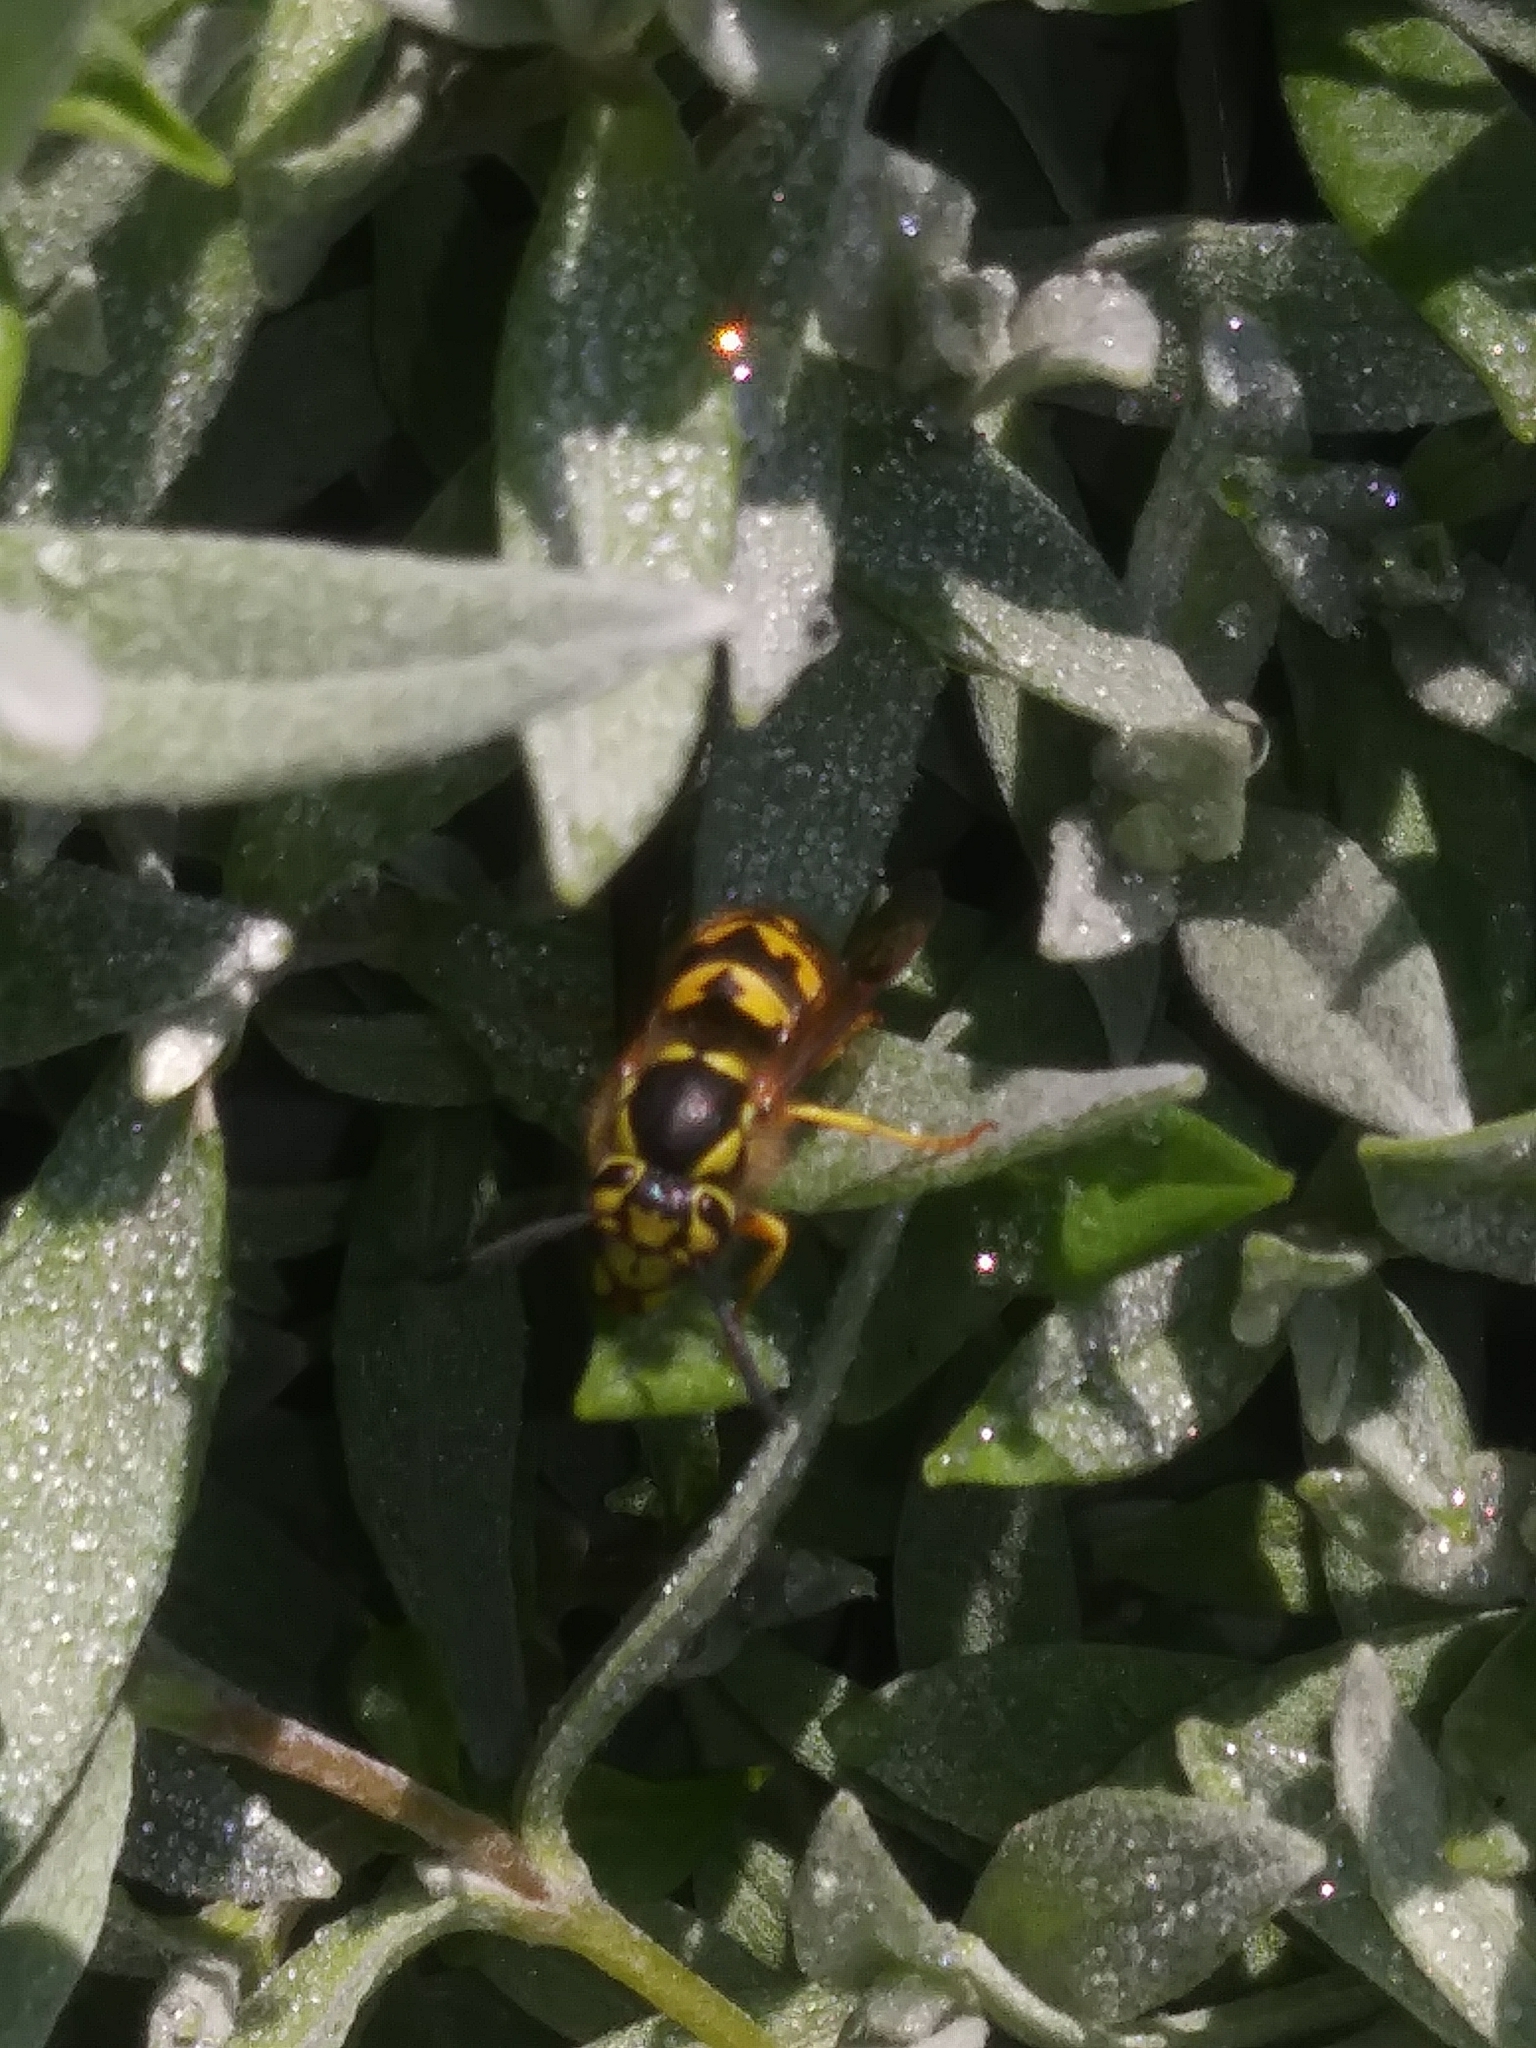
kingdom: Animalia
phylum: Arthropoda
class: Insecta
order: Hymenoptera
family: Vespidae
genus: Vespula
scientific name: Vespula pensylvanica
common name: Western yellowjacket
